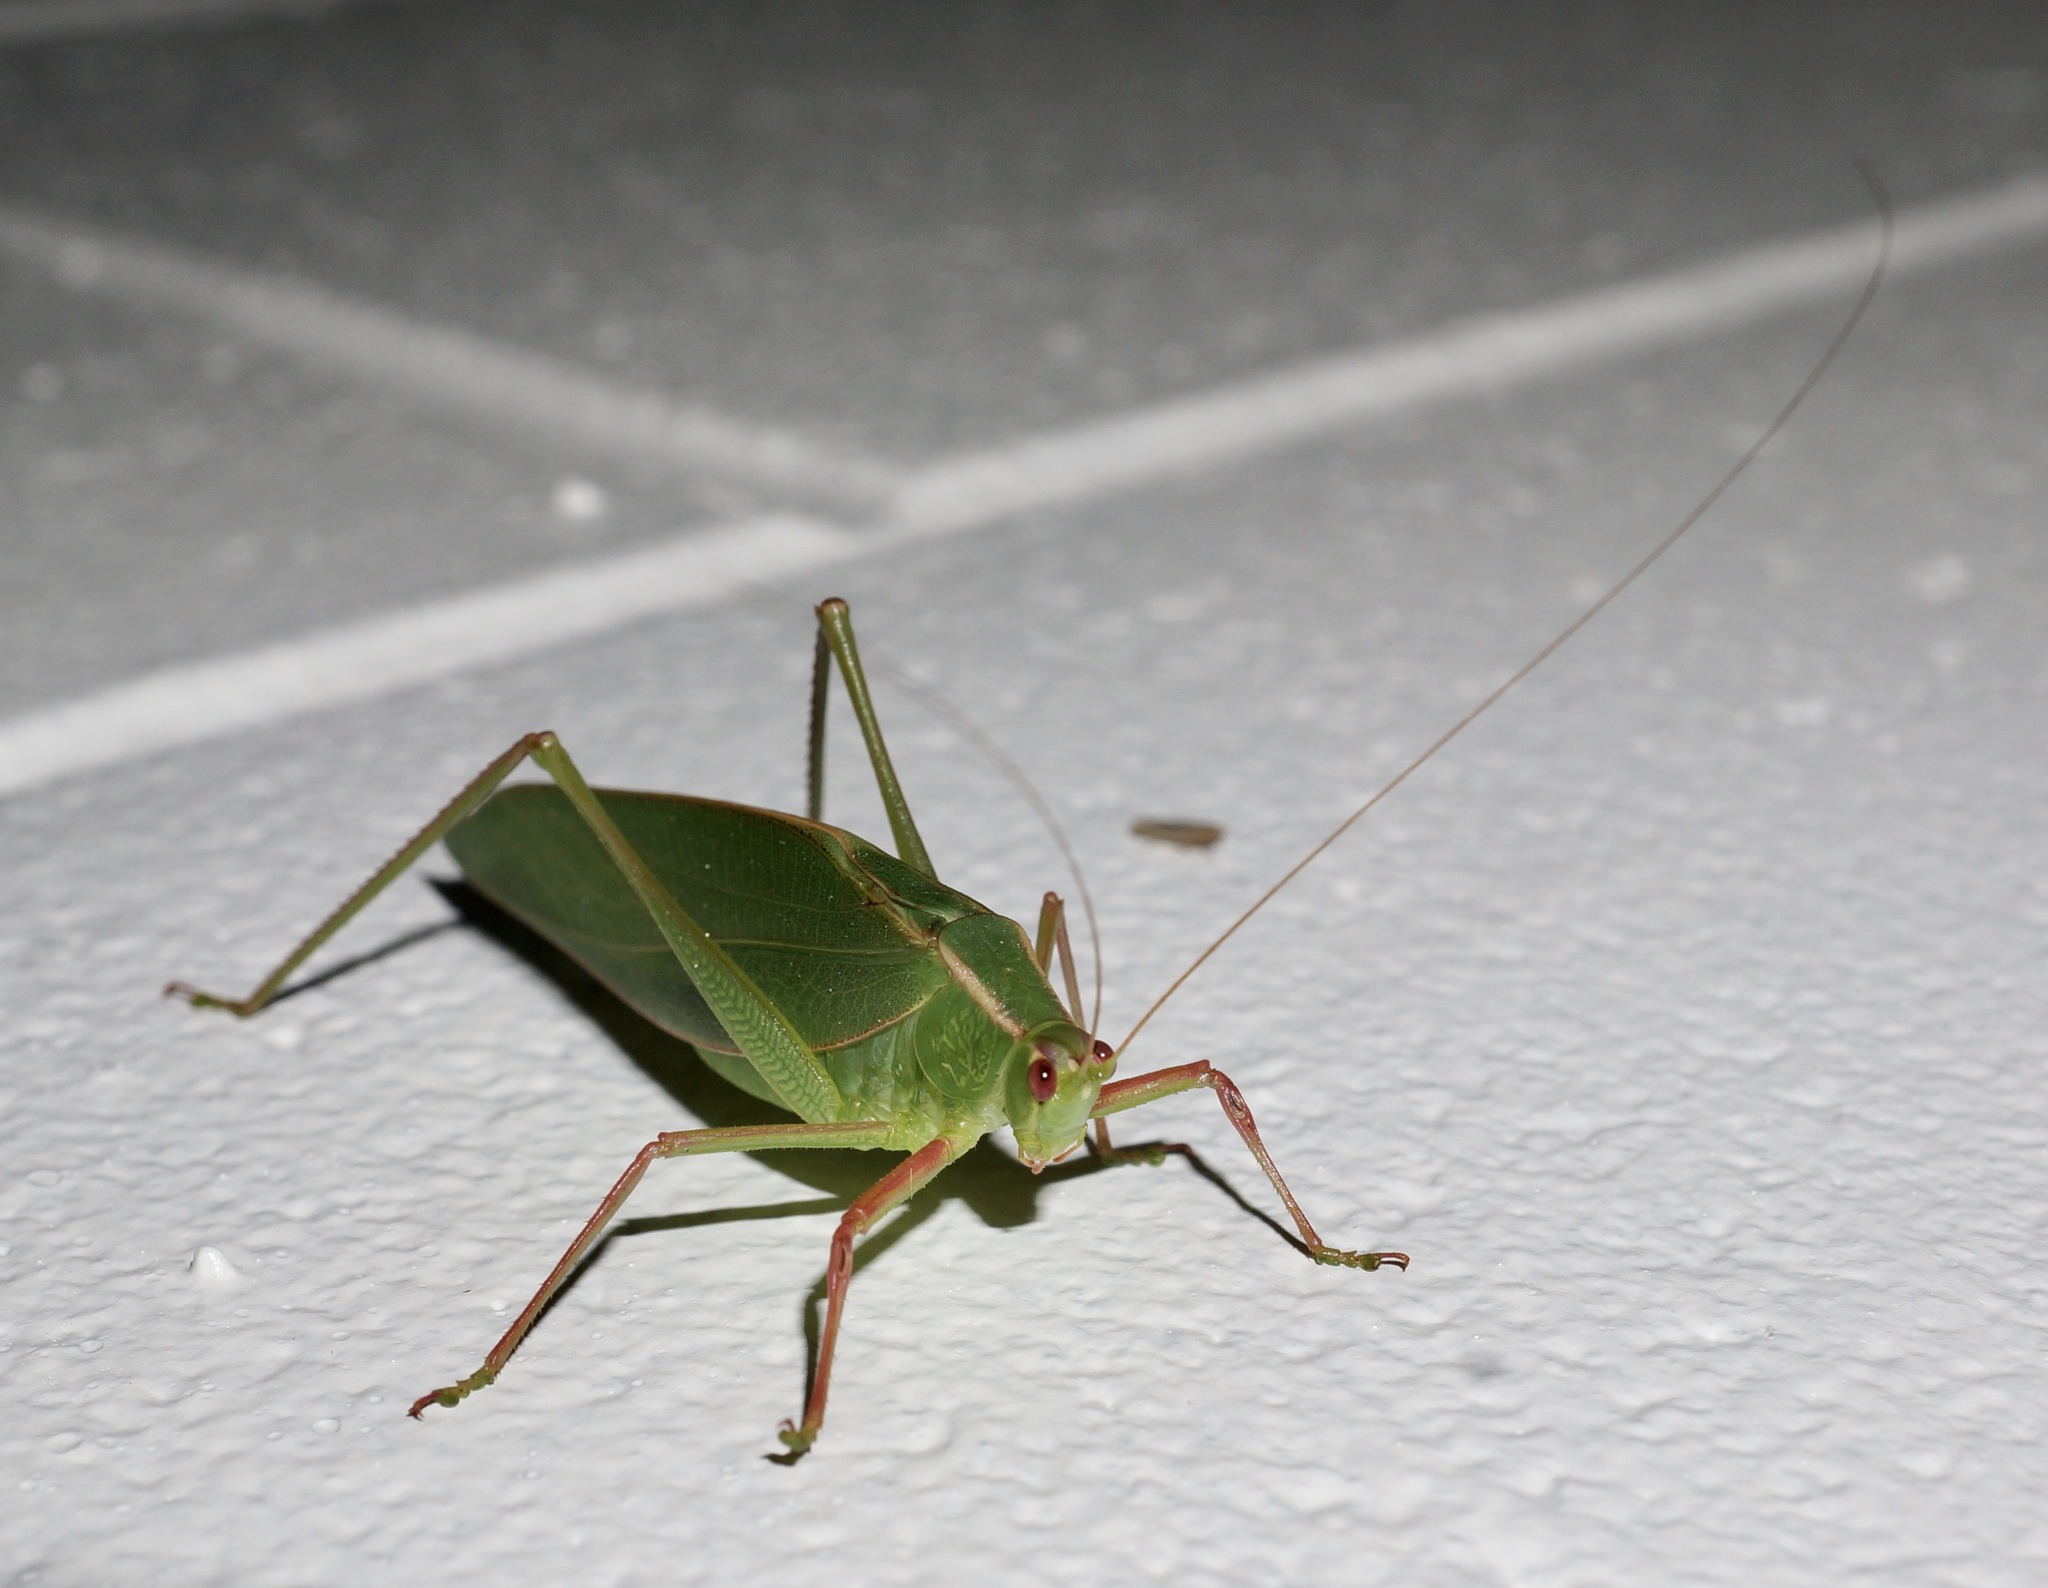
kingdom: Animalia
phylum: Arthropoda
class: Insecta
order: Orthoptera
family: Tettigoniidae
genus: Caedicia
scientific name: Caedicia simplex
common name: Common garden katydid
